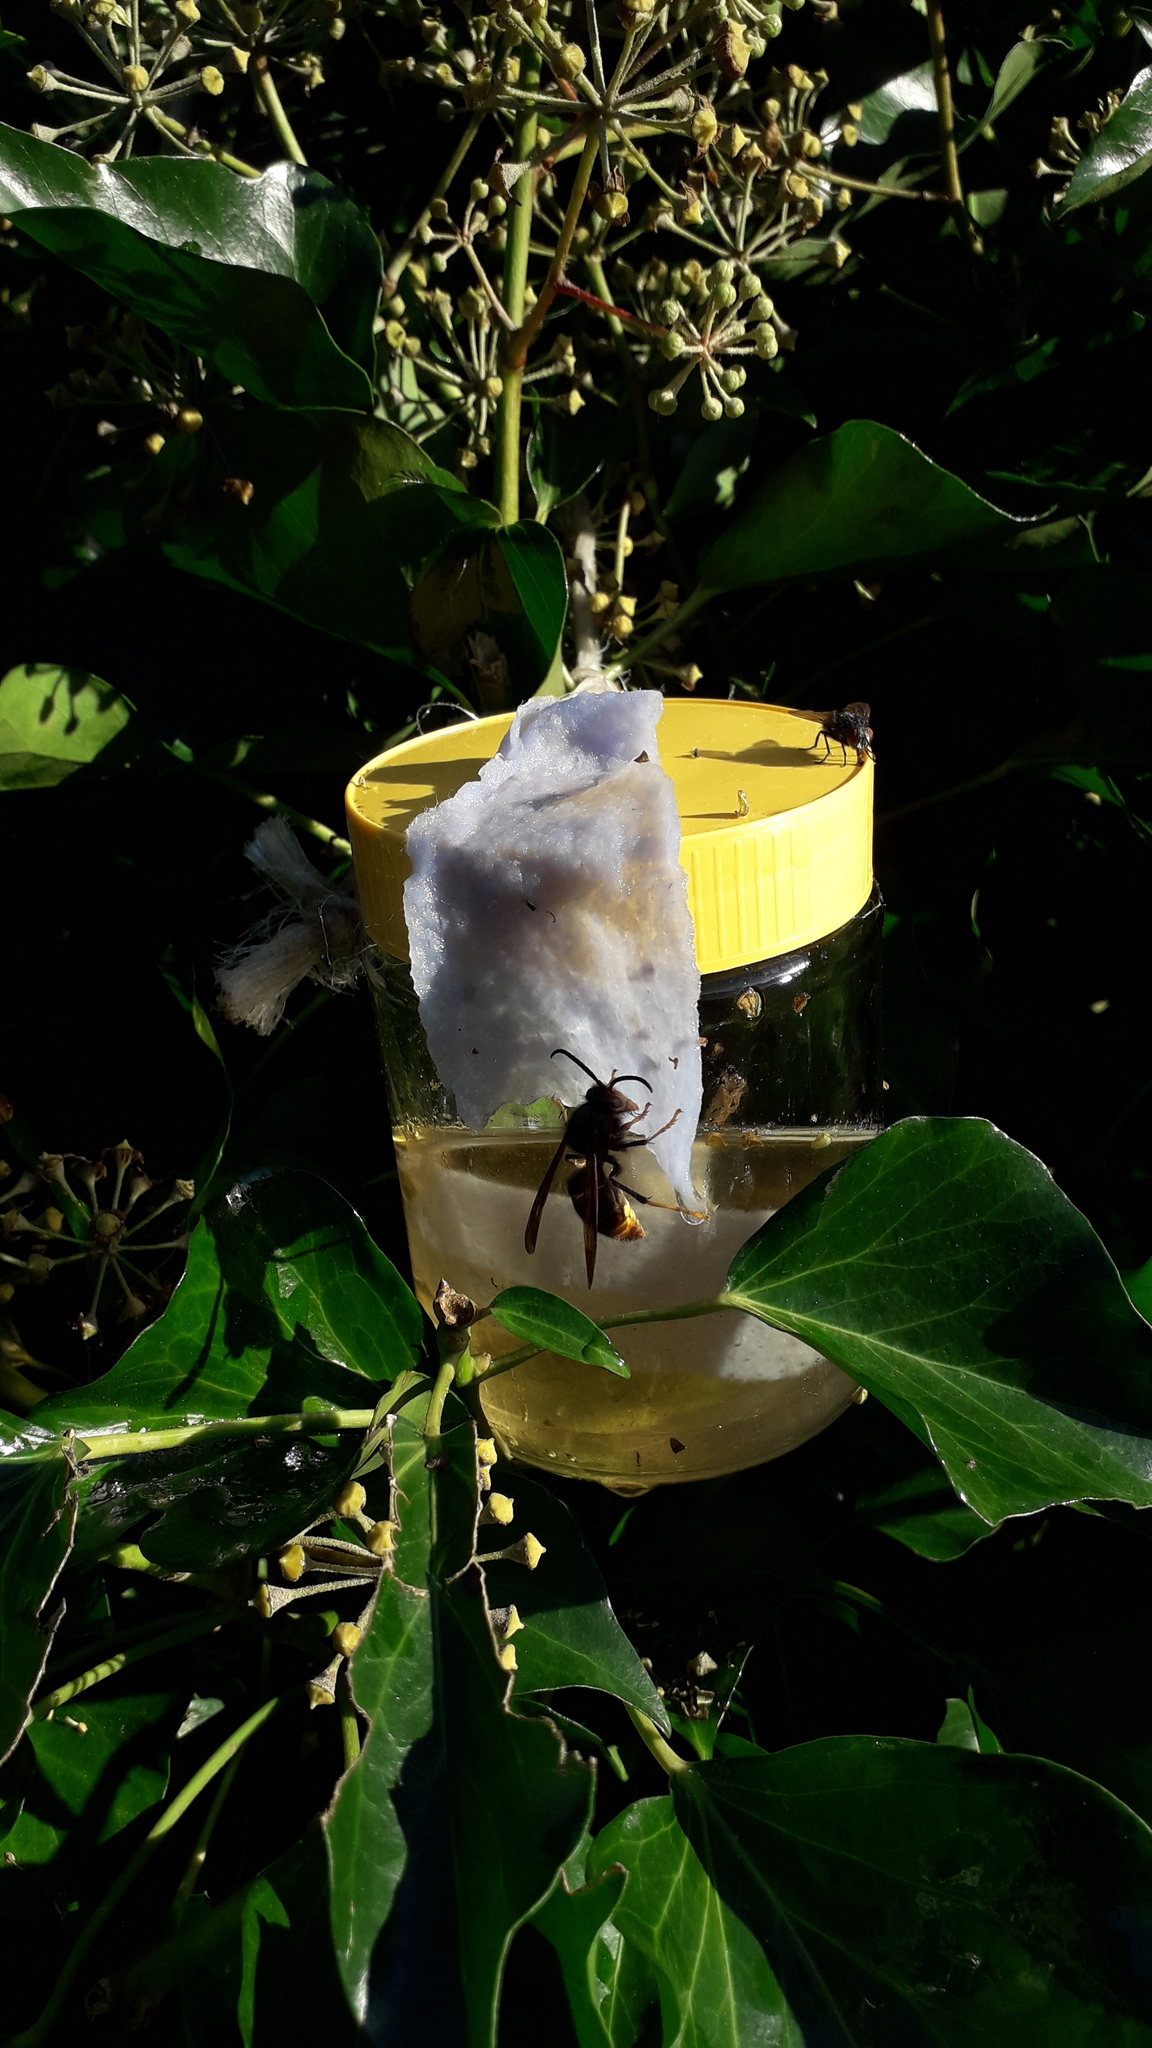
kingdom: Animalia
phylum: Arthropoda
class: Insecta
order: Hymenoptera
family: Vespidae
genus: Vespa
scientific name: Vespa velutina
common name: Asian hornet
